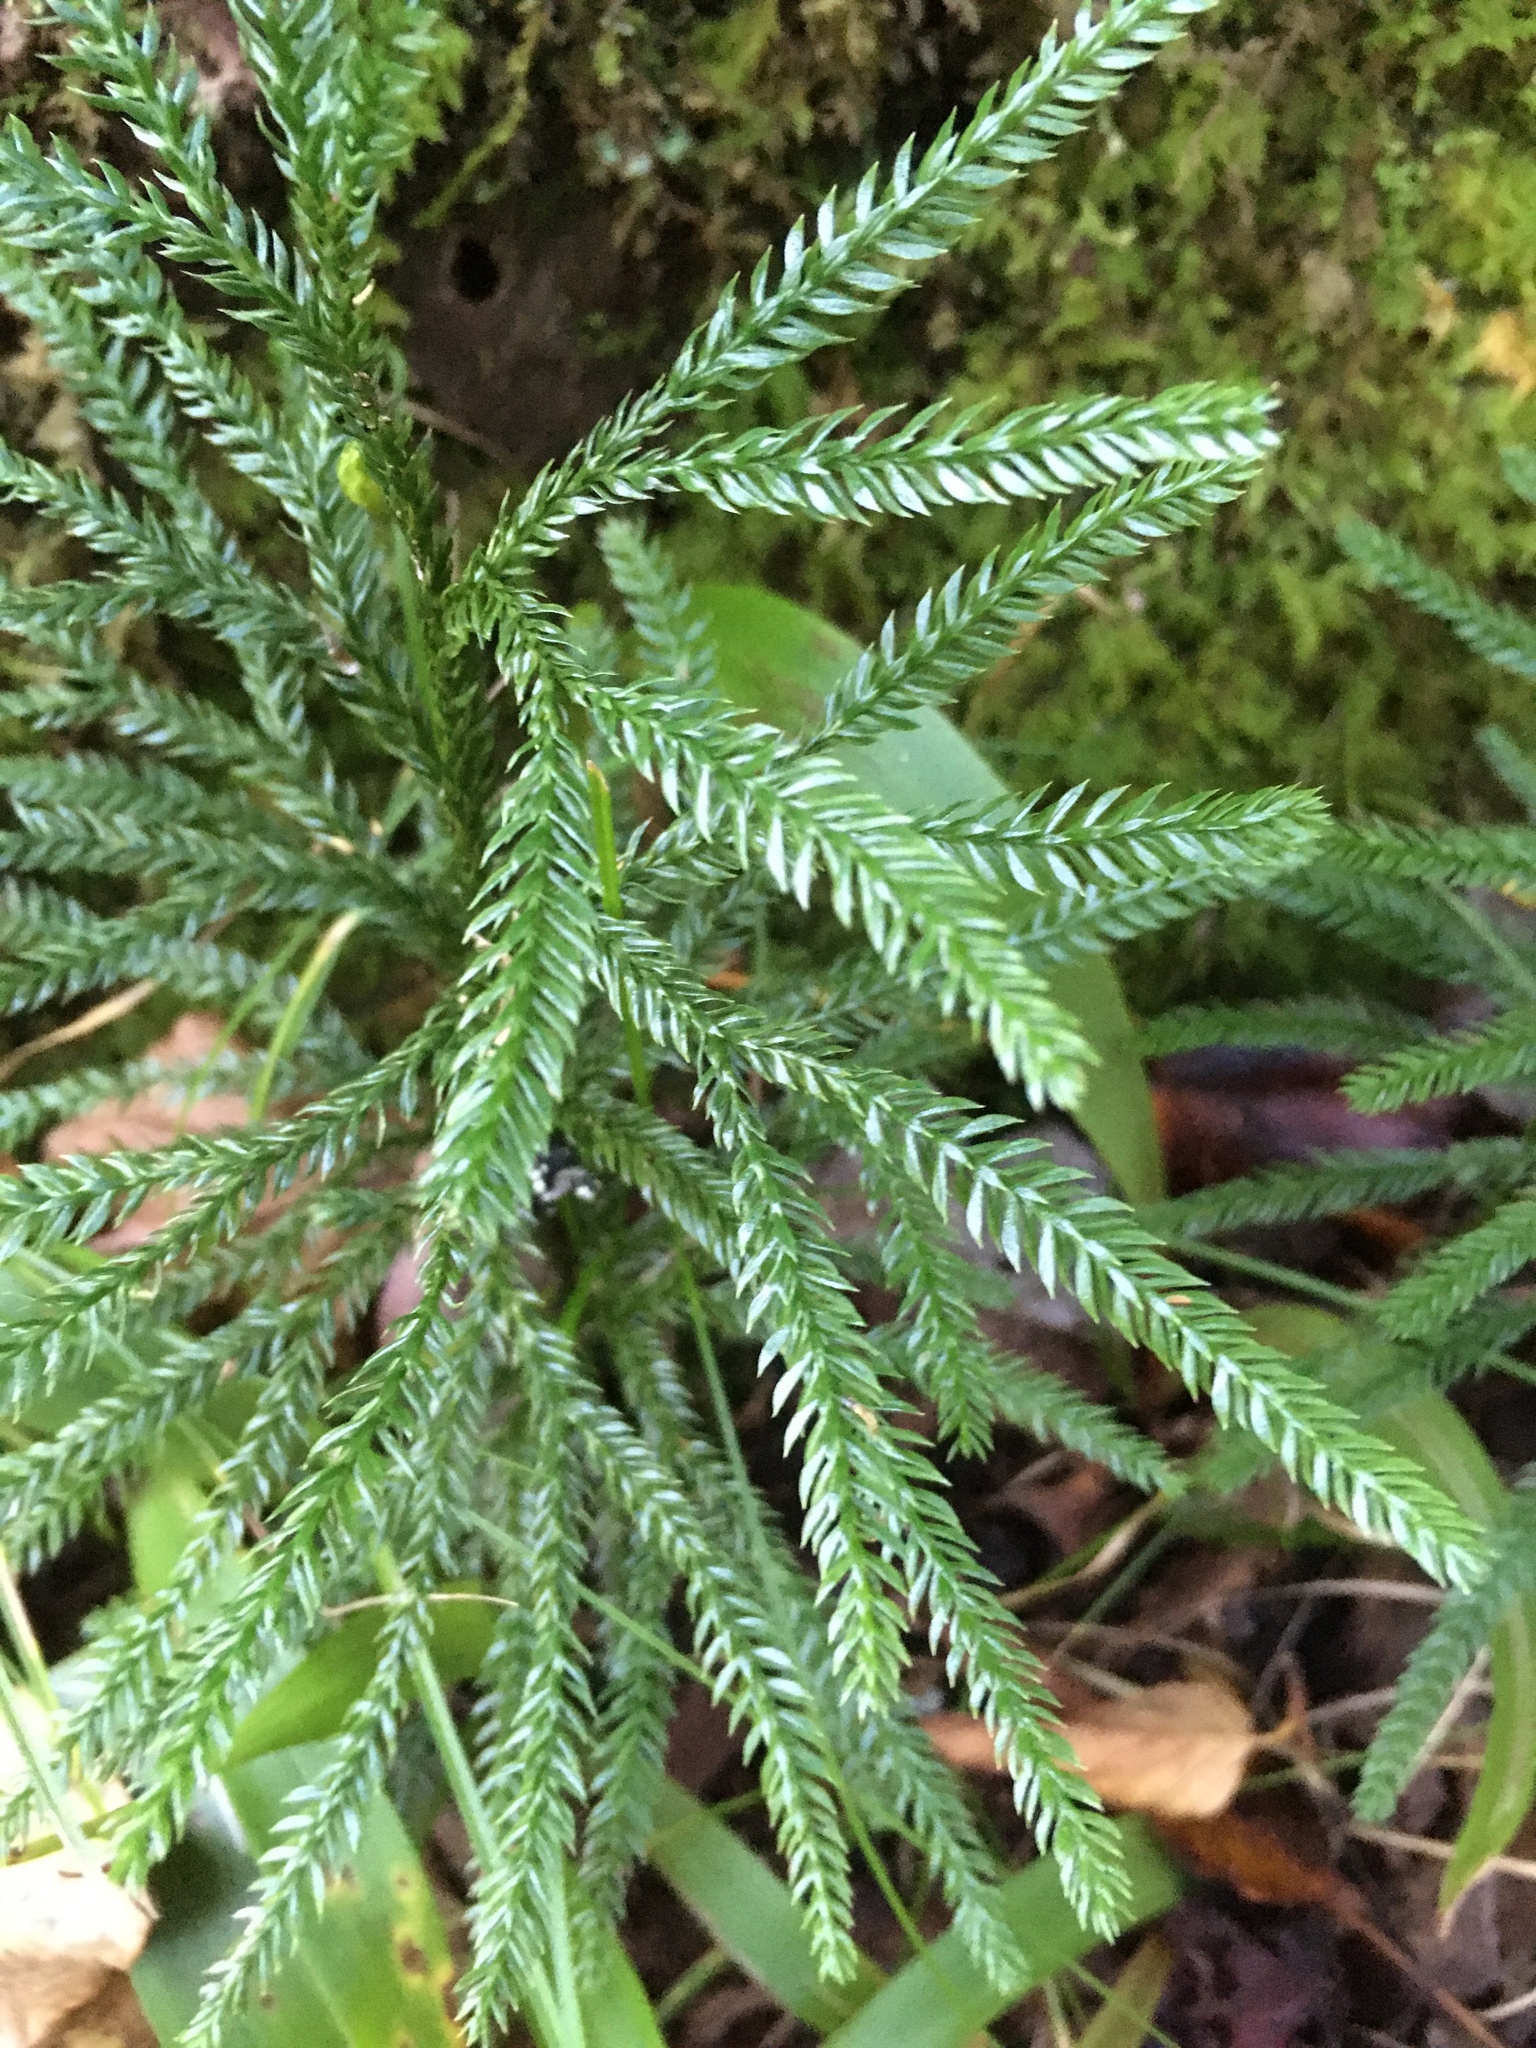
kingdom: Plantae
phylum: Tracheophyta
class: Lycopodiopsida
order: Lycopodiales
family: Lycopodiaceae
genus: Dendrolycopodium
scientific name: Dendrolycopodium obscurum
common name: Common ground-pine
